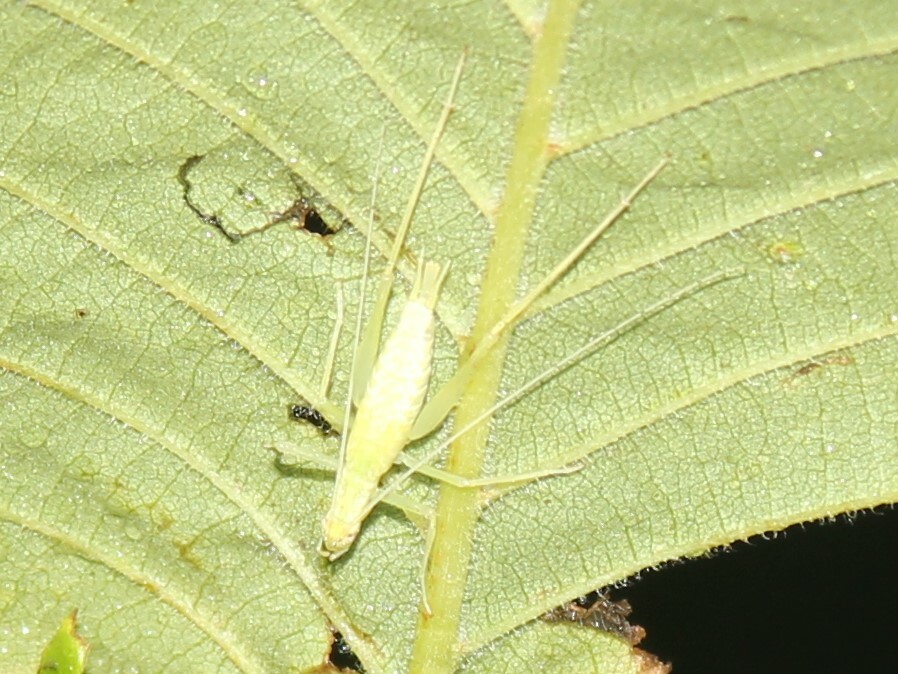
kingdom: Animalia
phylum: Arthropoda
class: Insecta
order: Orthoptera
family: Gryllidae
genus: Oecanthus
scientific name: Oecanthus
